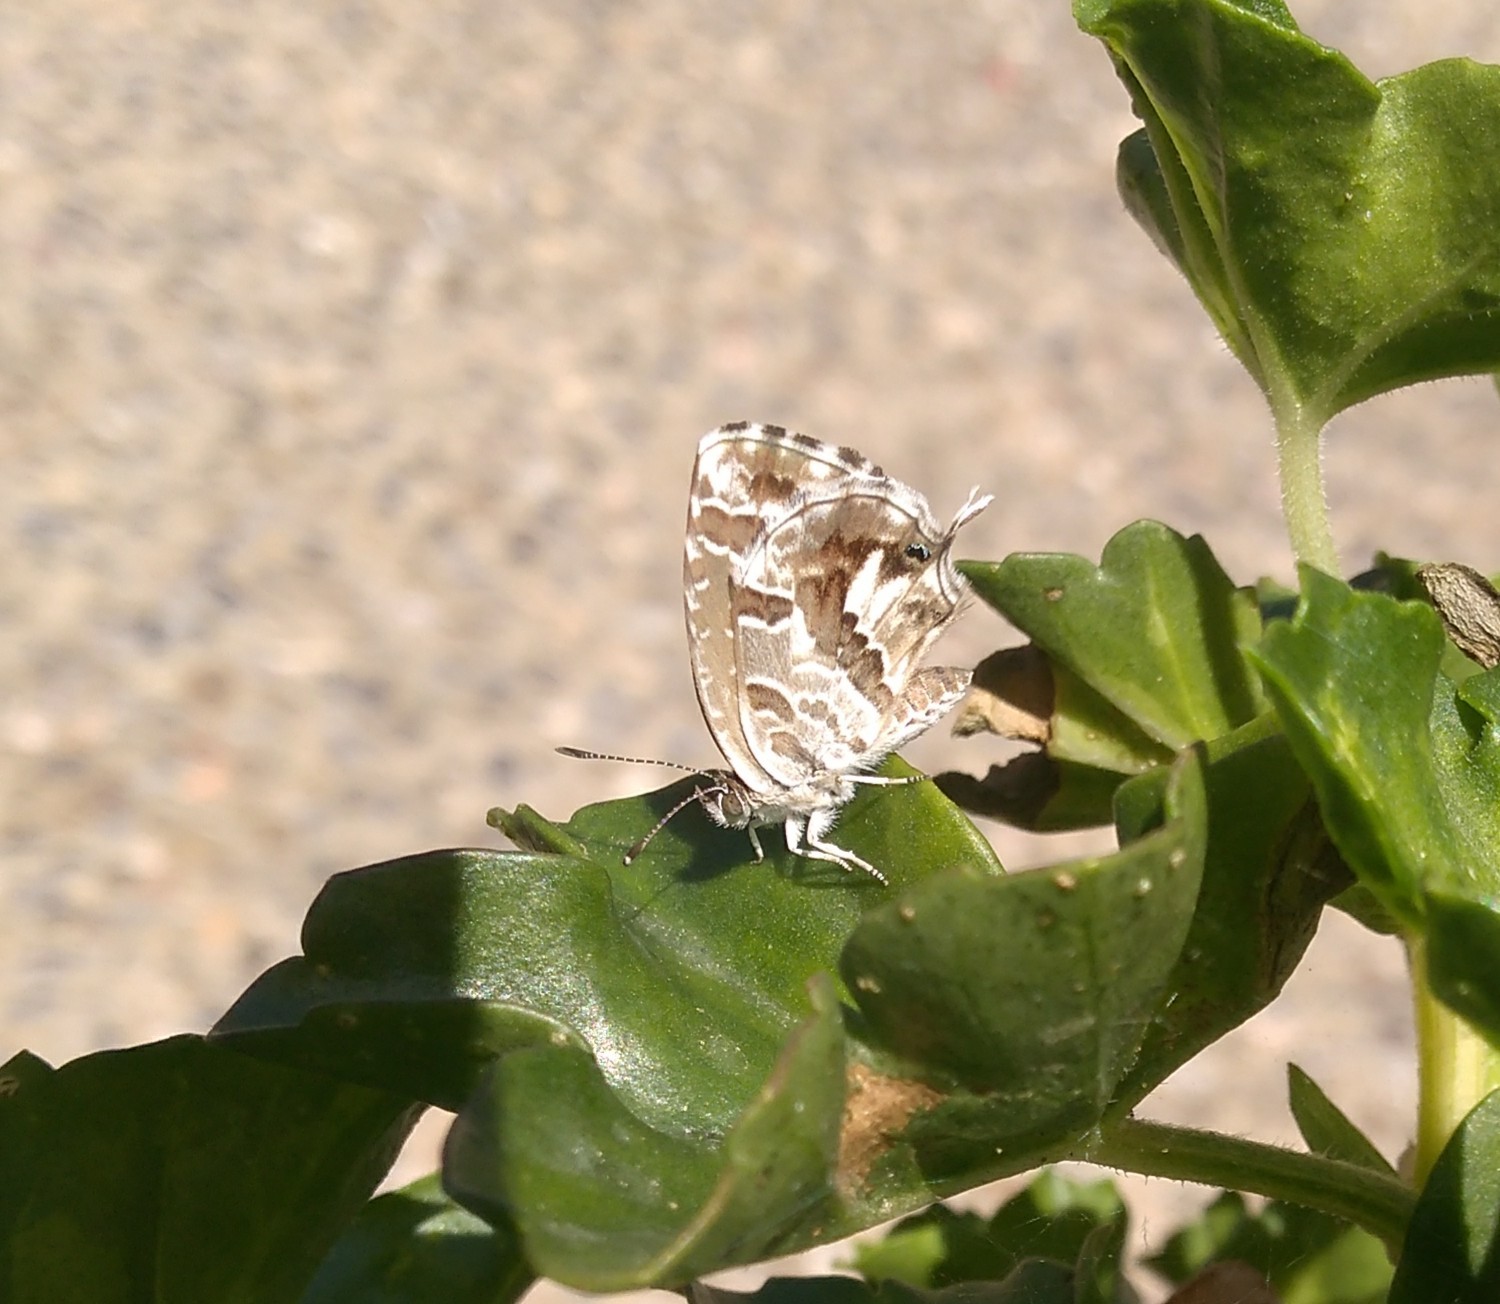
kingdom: Animalia
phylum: Arthropoda
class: Insecta
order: Lepidoptera
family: Lycaenidae
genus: Cacyreus
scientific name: Cacyreus marshalli
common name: Geranium bronze
